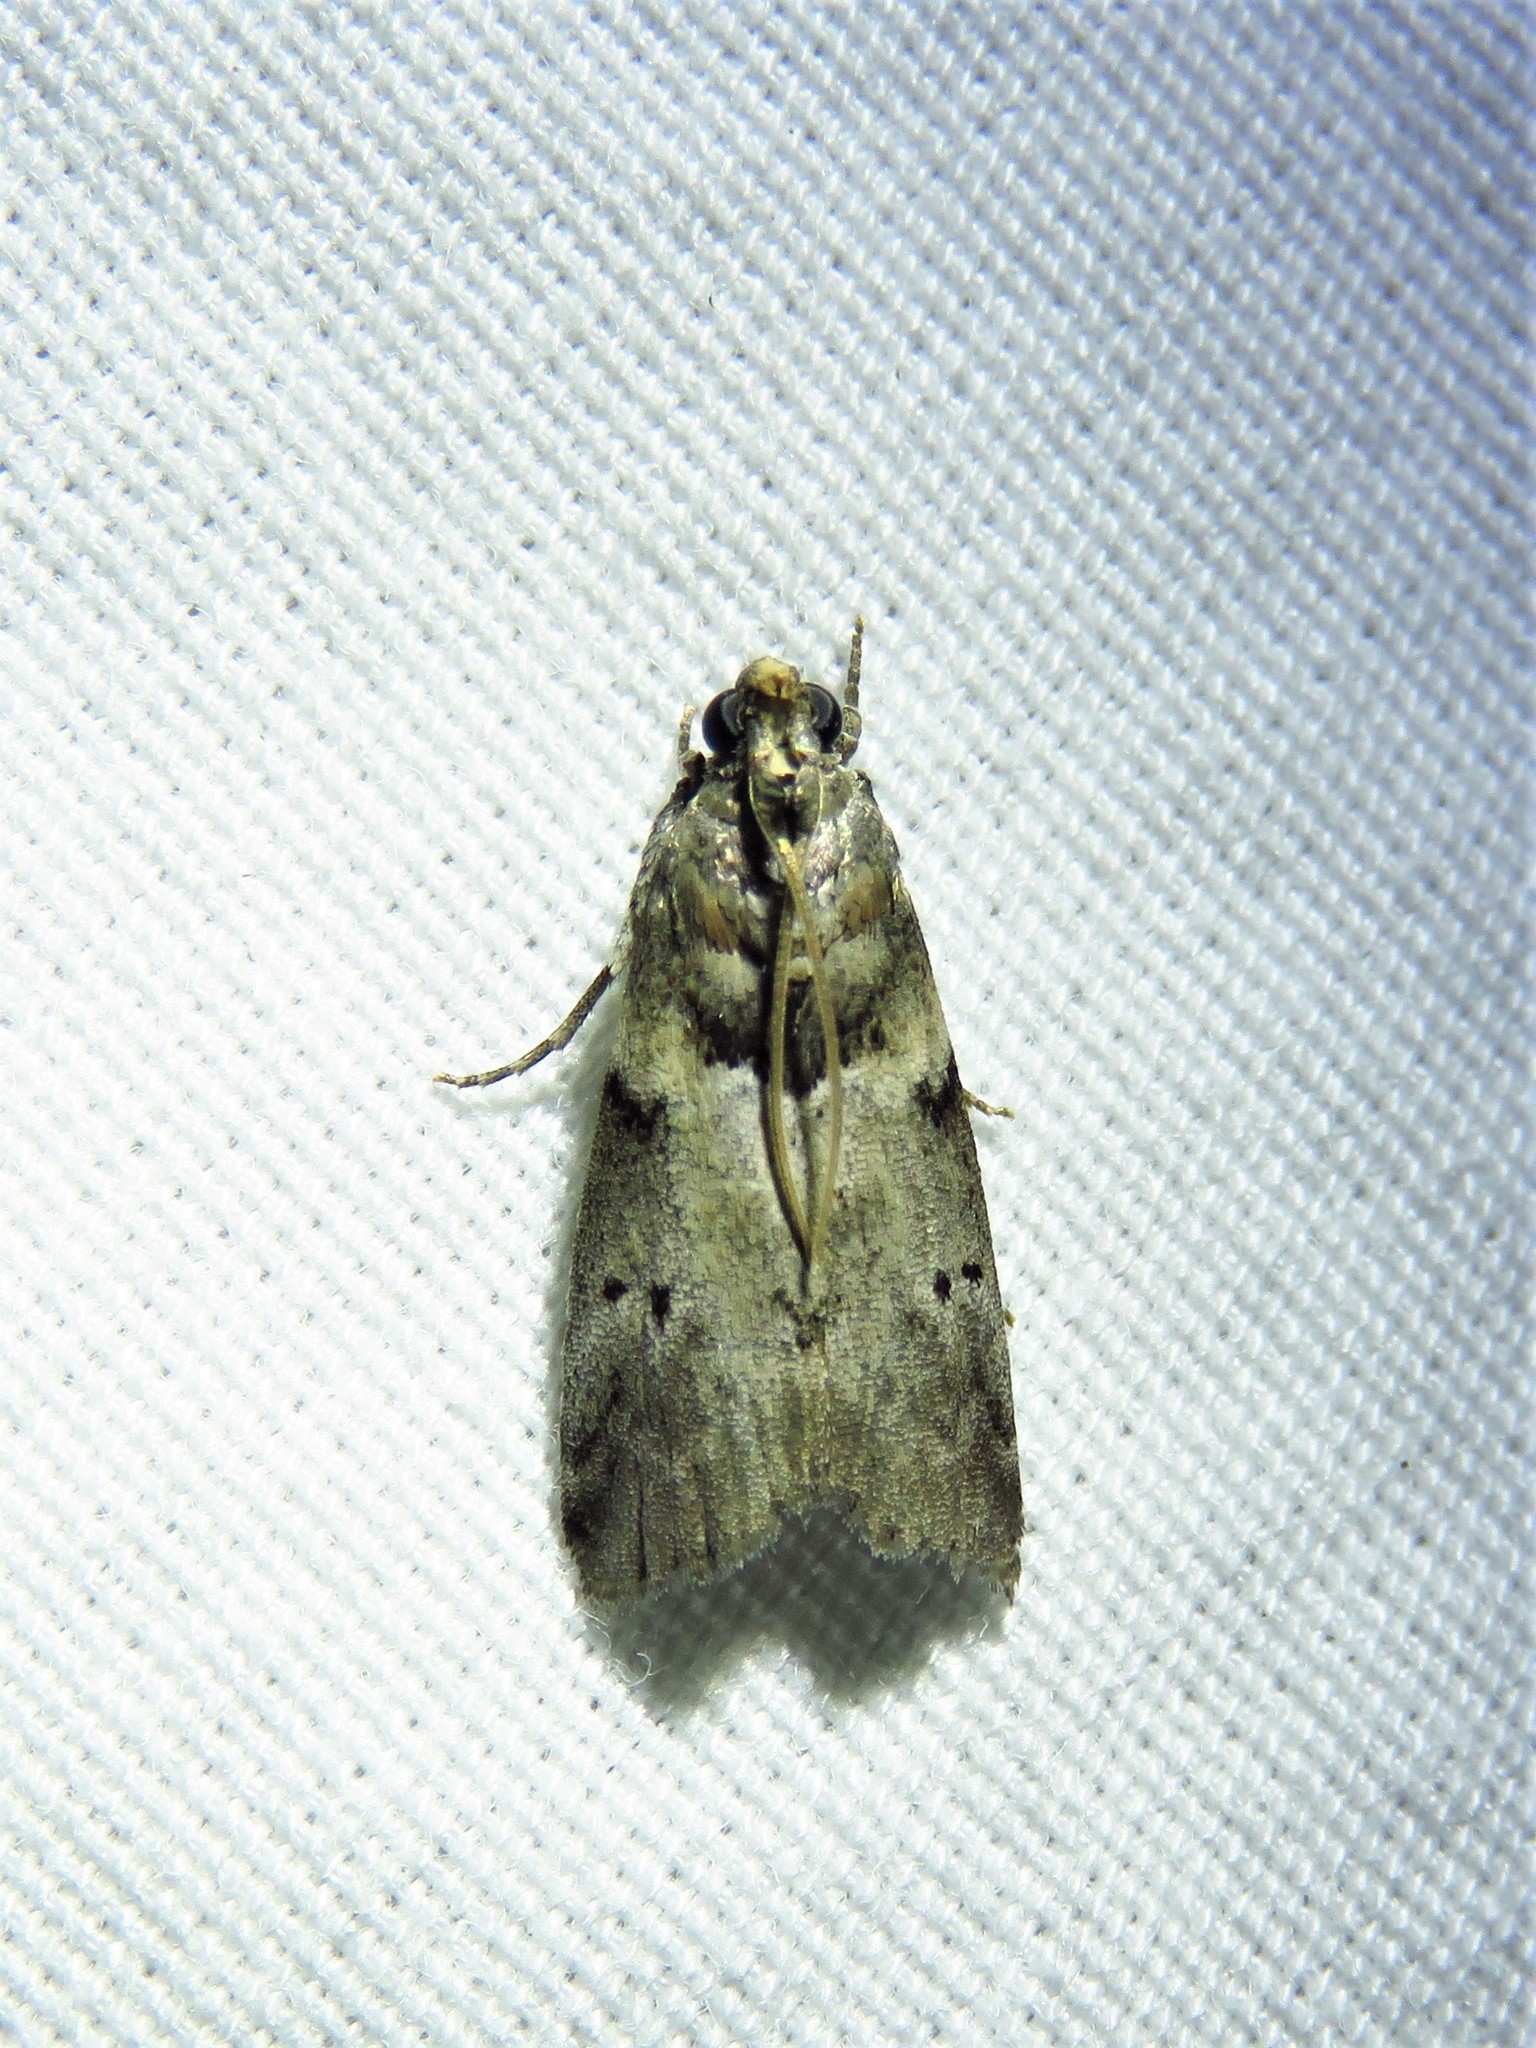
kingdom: Animalia
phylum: Arthropoda
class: Insecta
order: Lepidoptera
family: Pyralidae
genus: Salebriaria
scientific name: Salebriaria annulosella
